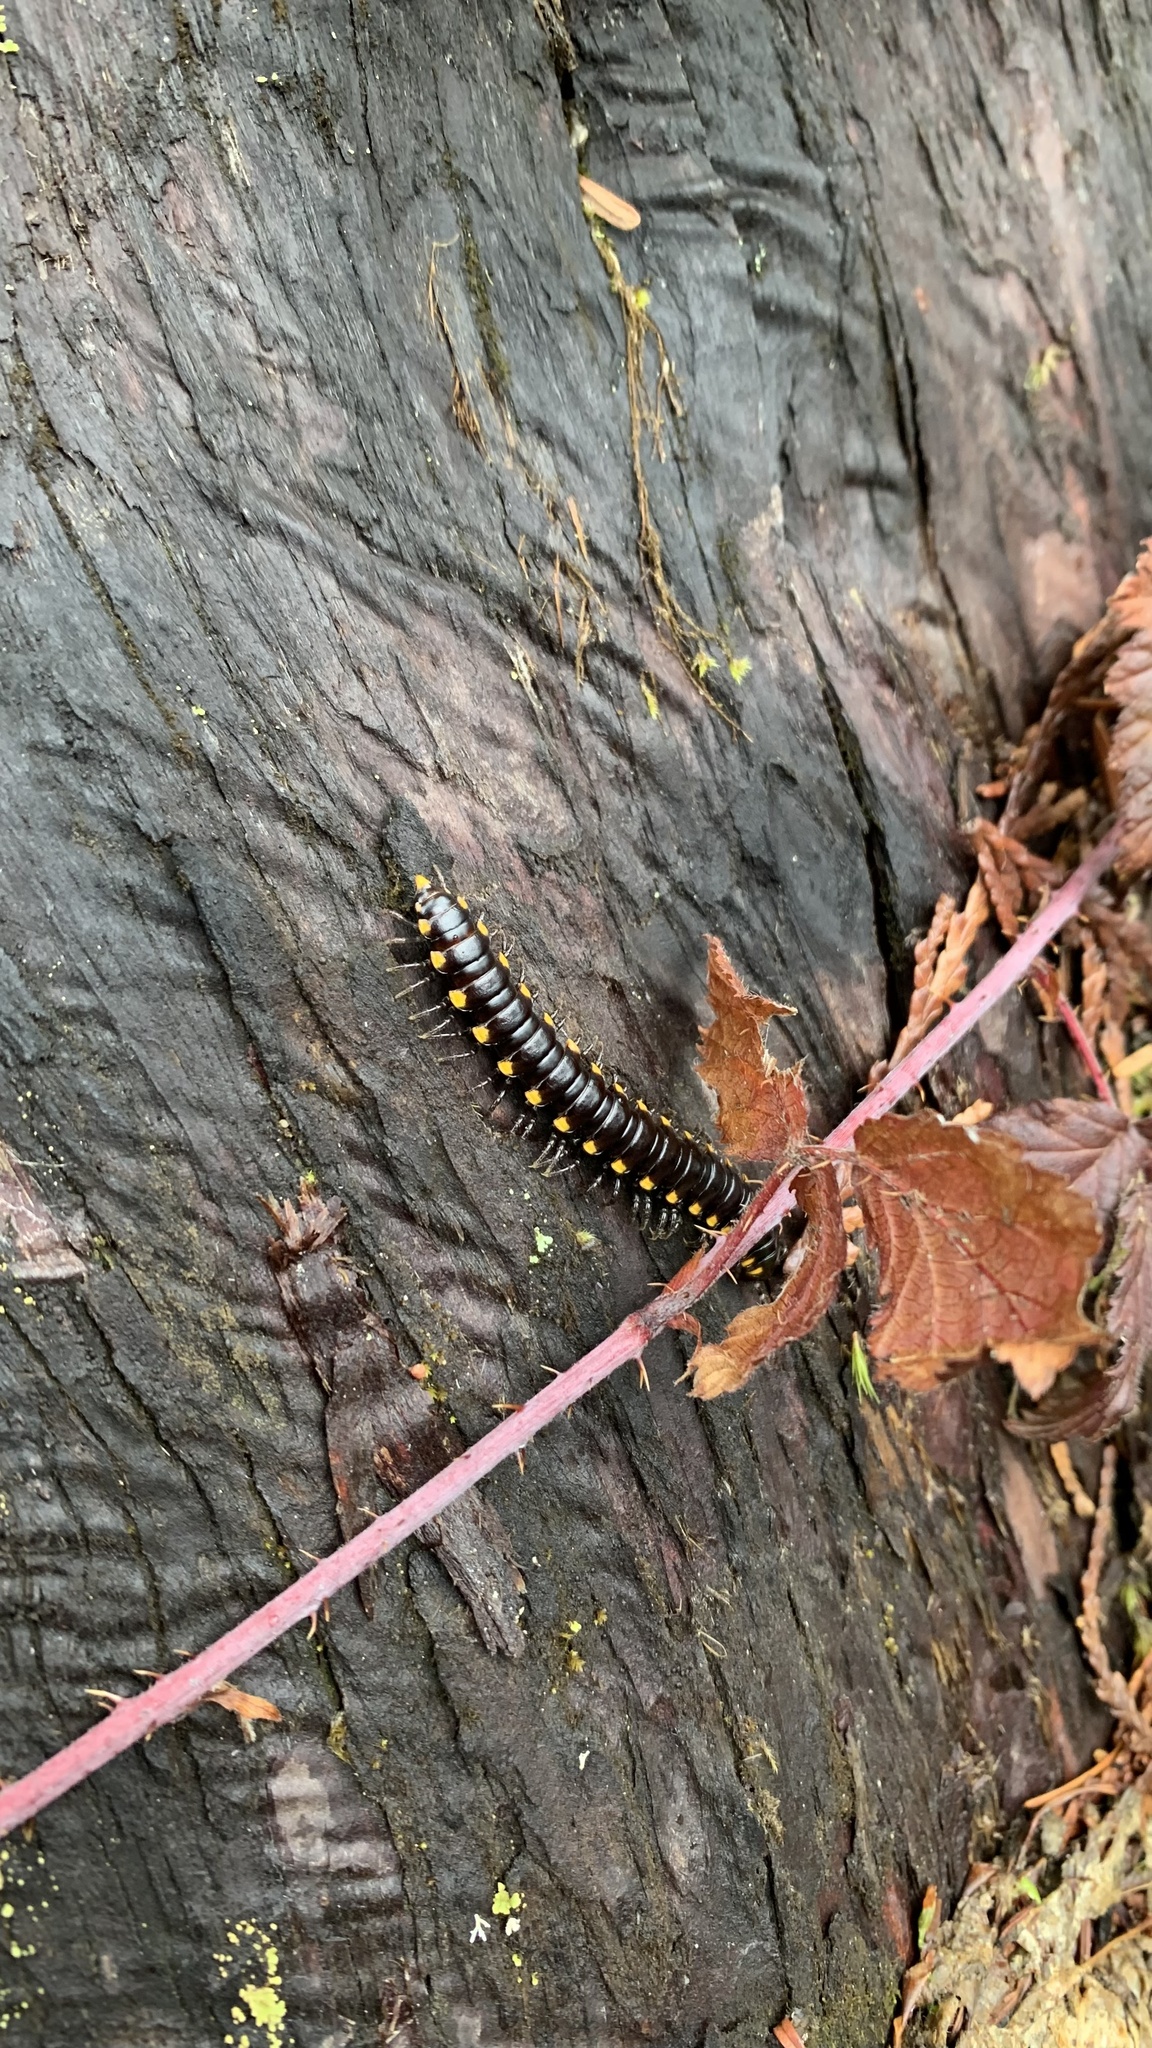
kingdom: Animalia
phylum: Arthropoda
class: Diplopoda
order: Polydesmida
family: Xystodesmidae
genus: Harpaphe
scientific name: Harpaphe haydeniana
